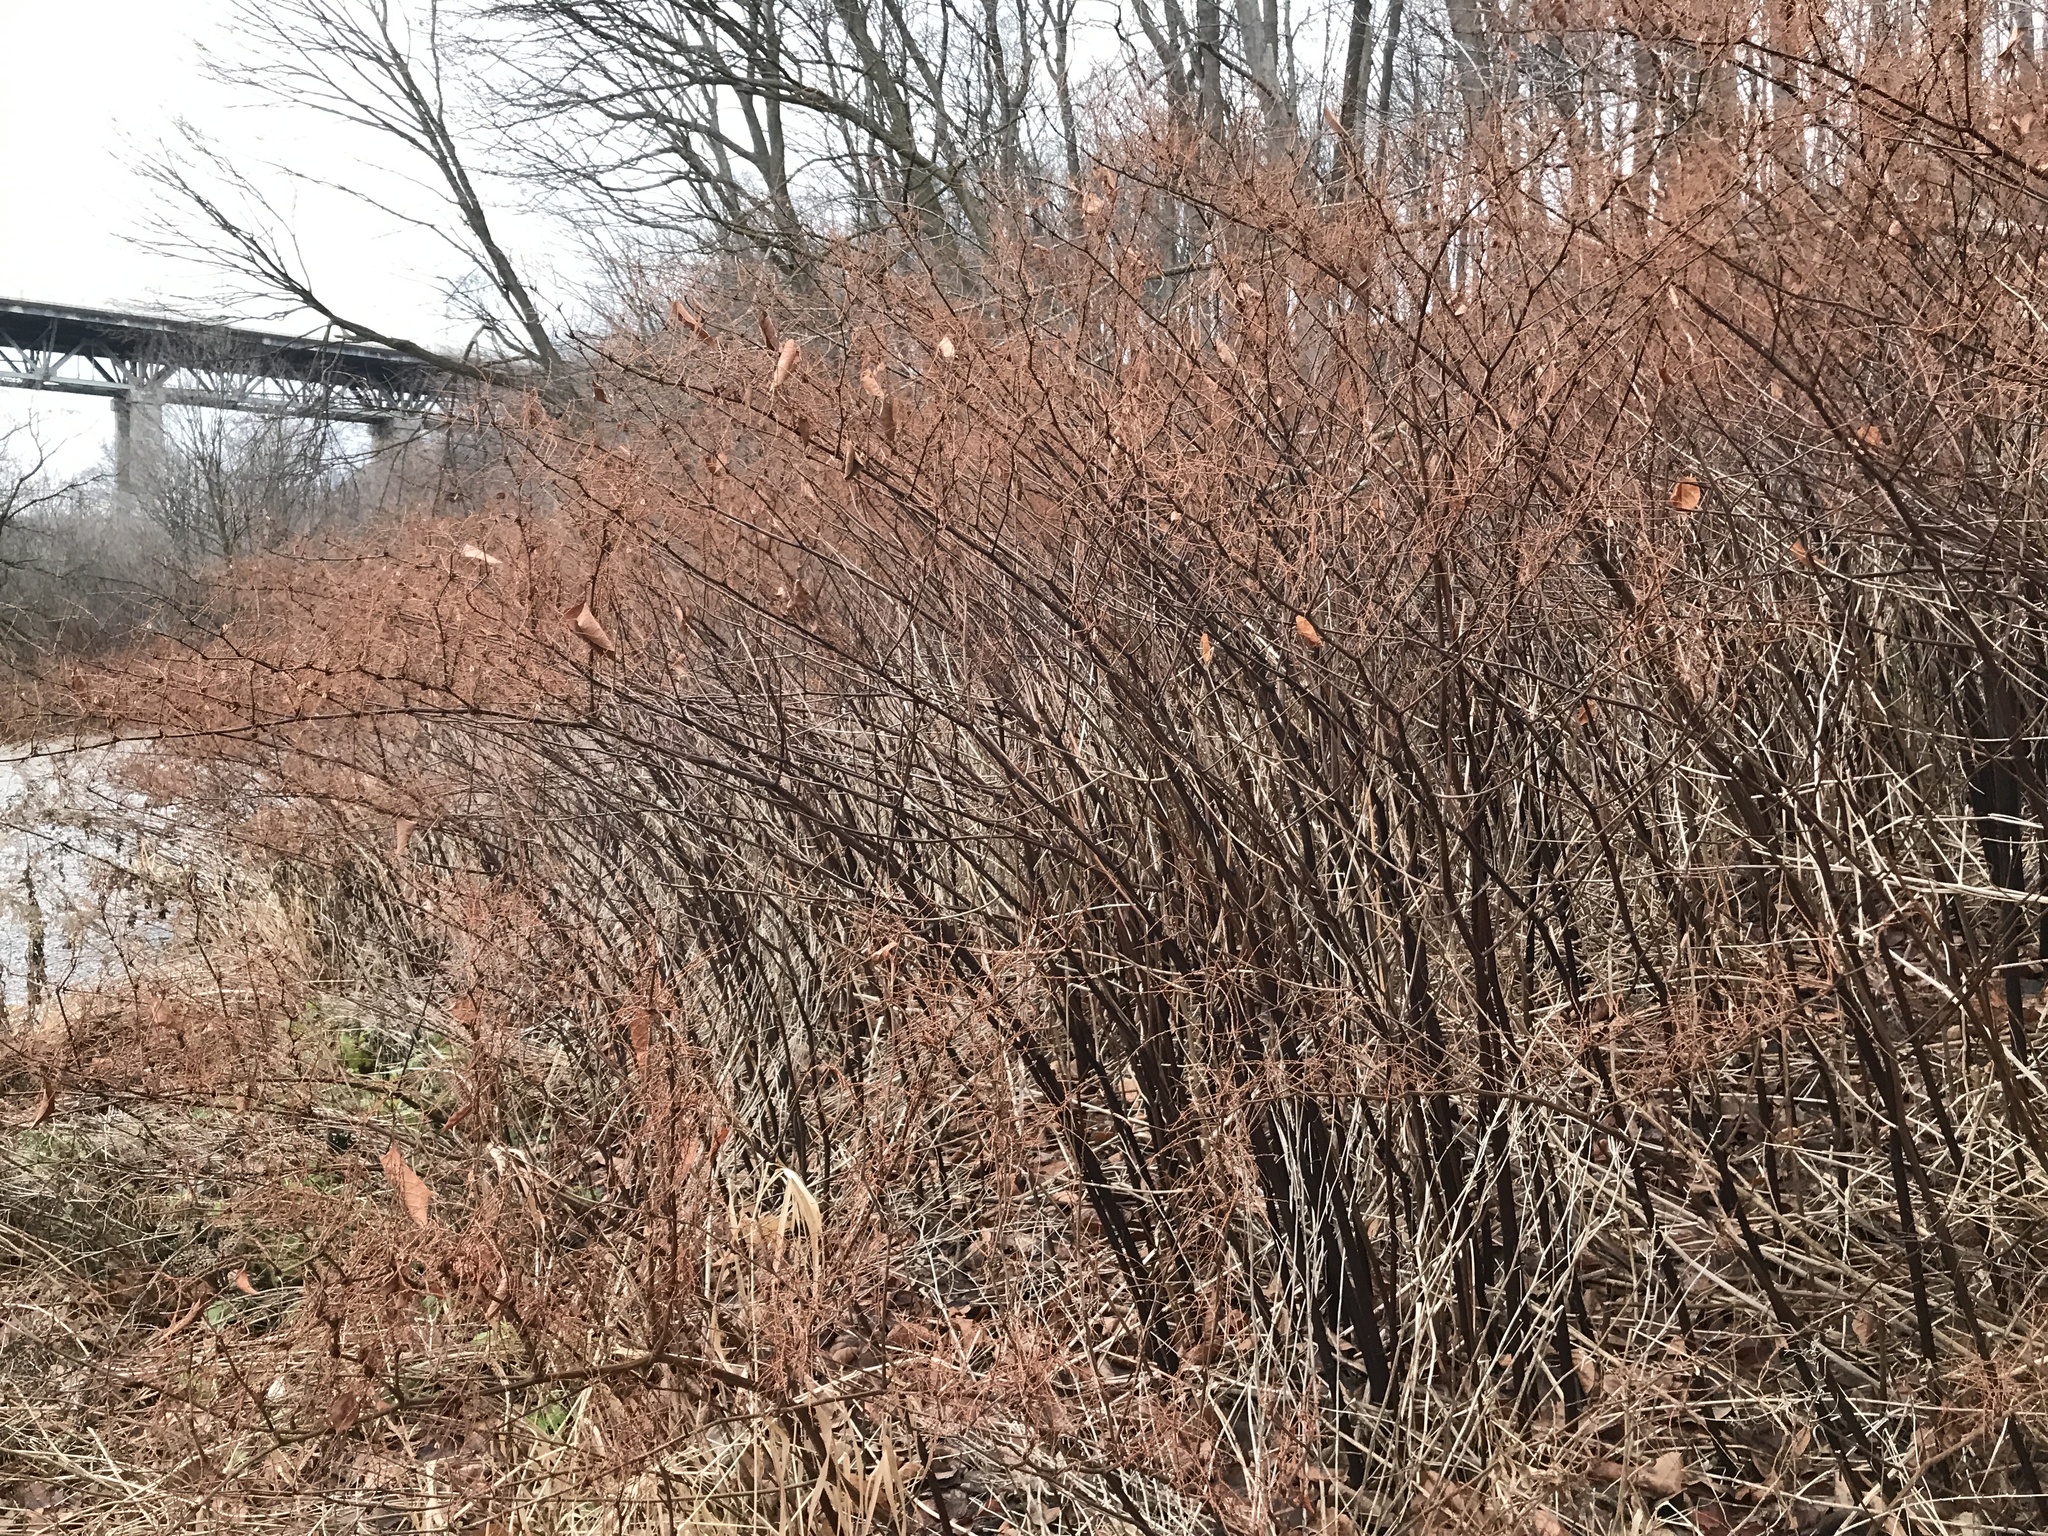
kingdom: Plantae
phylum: Tracheophyta
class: Magnoliopsida
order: Caryophyllales
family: Polygonaceae
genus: Reynoutria
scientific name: Reynoutria japonica
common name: Japanese knotweed
